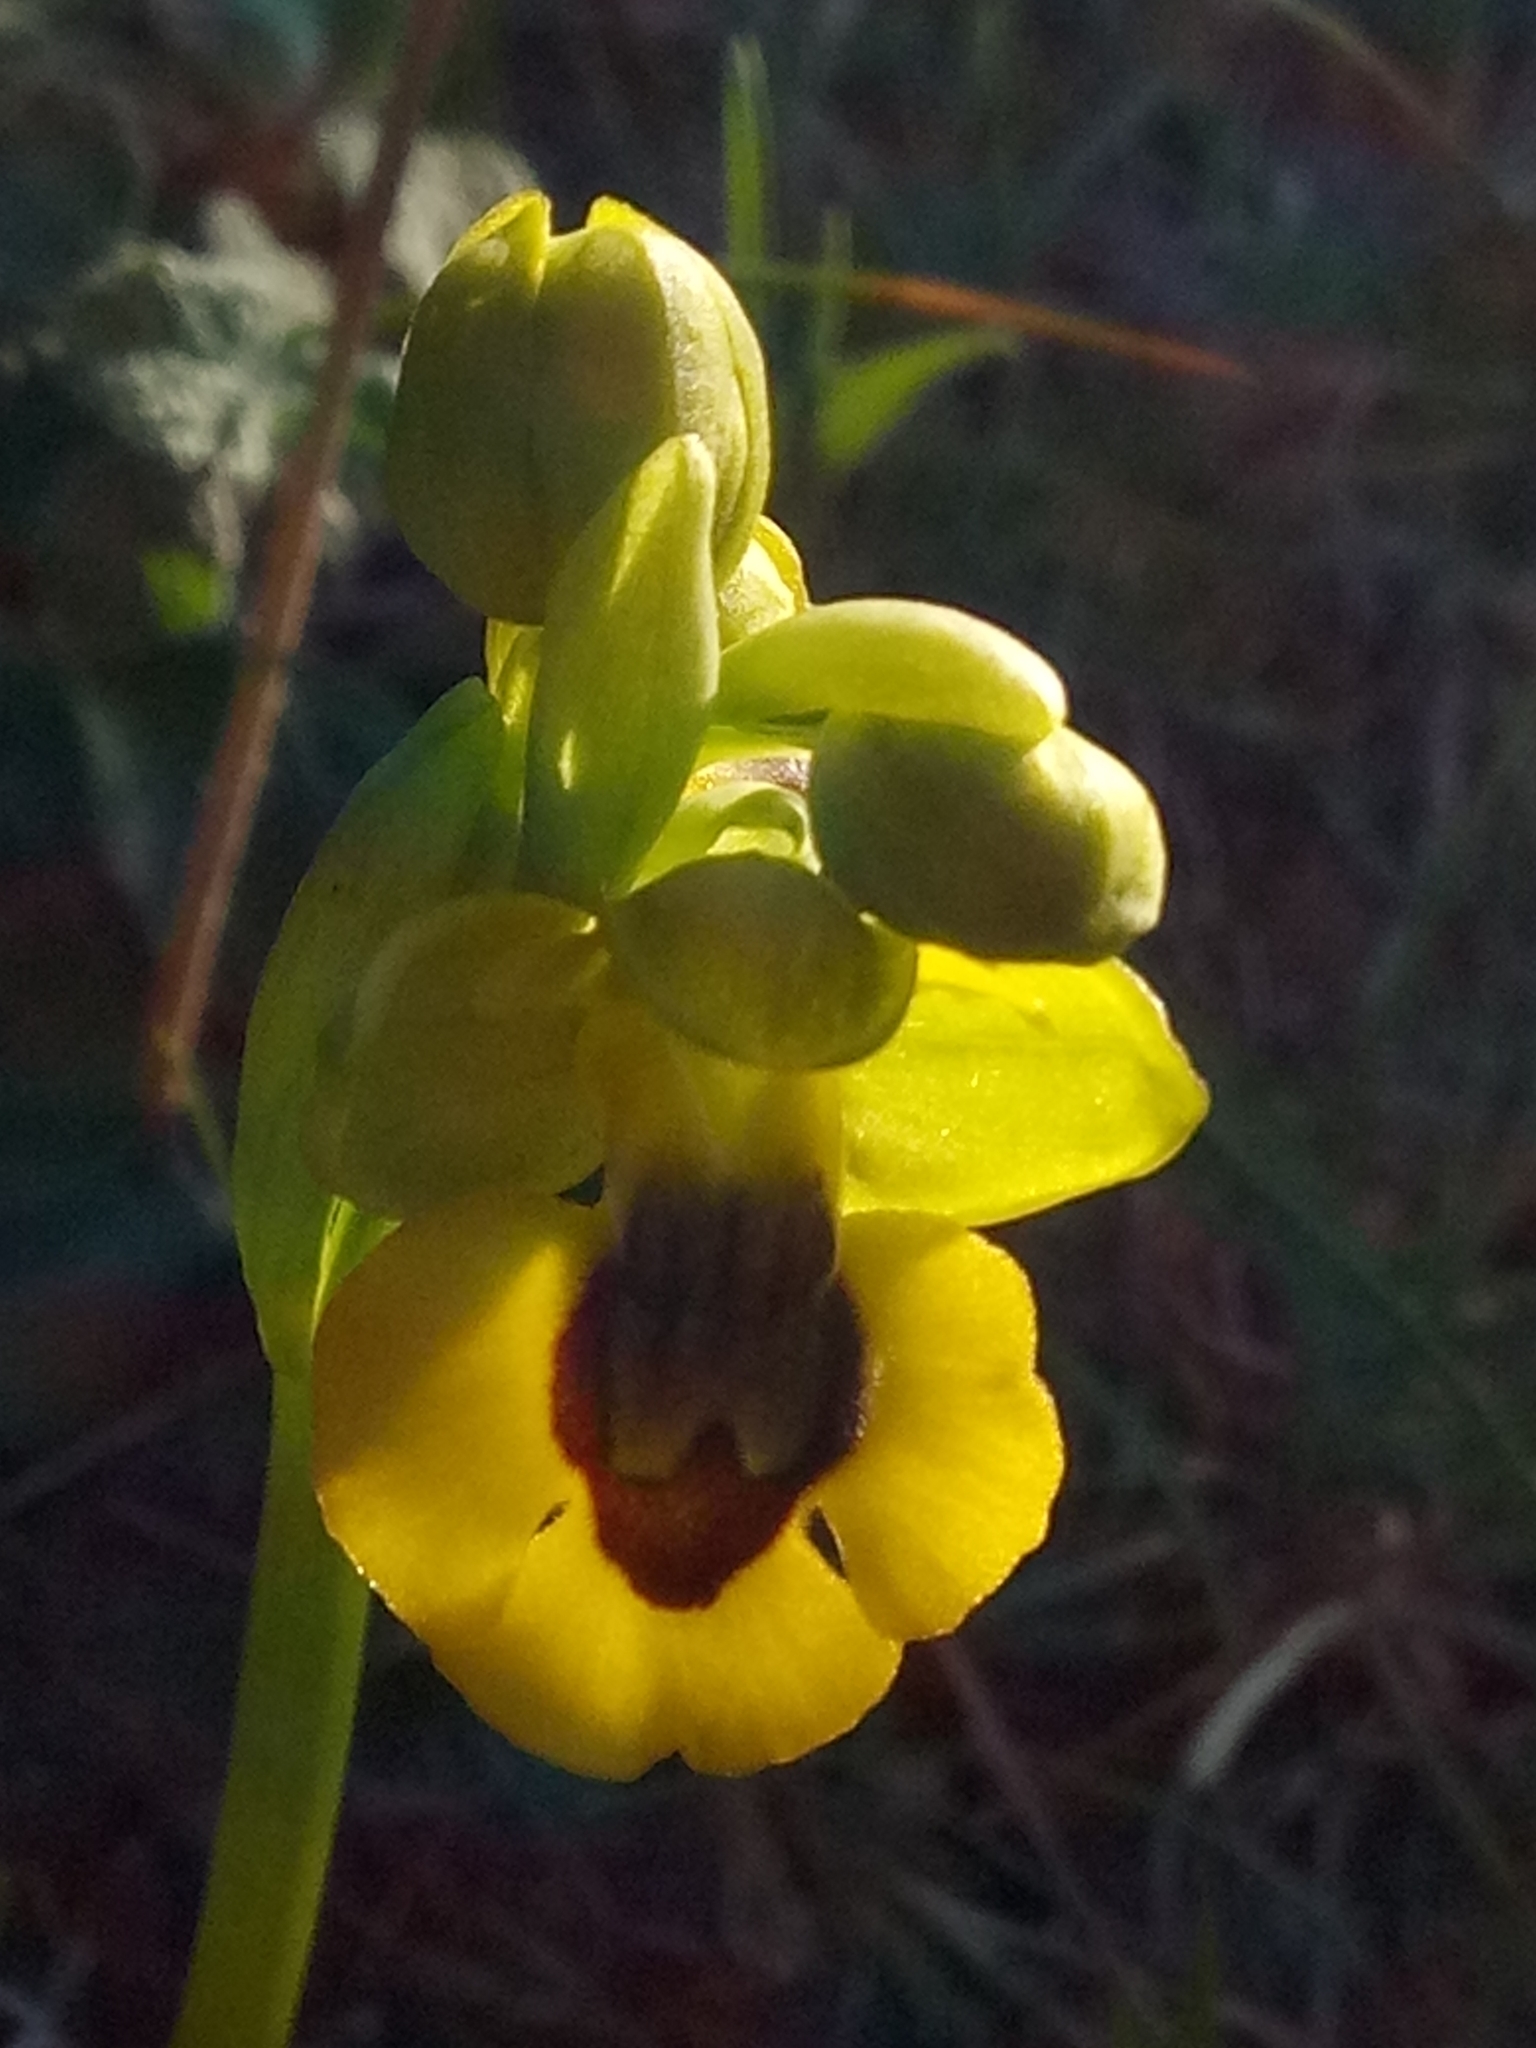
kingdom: Plantae
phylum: Tracheophyta
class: Liliopsida
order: Asparagales
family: Orchidaceae
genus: Ophrys
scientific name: Ophrys lutea
